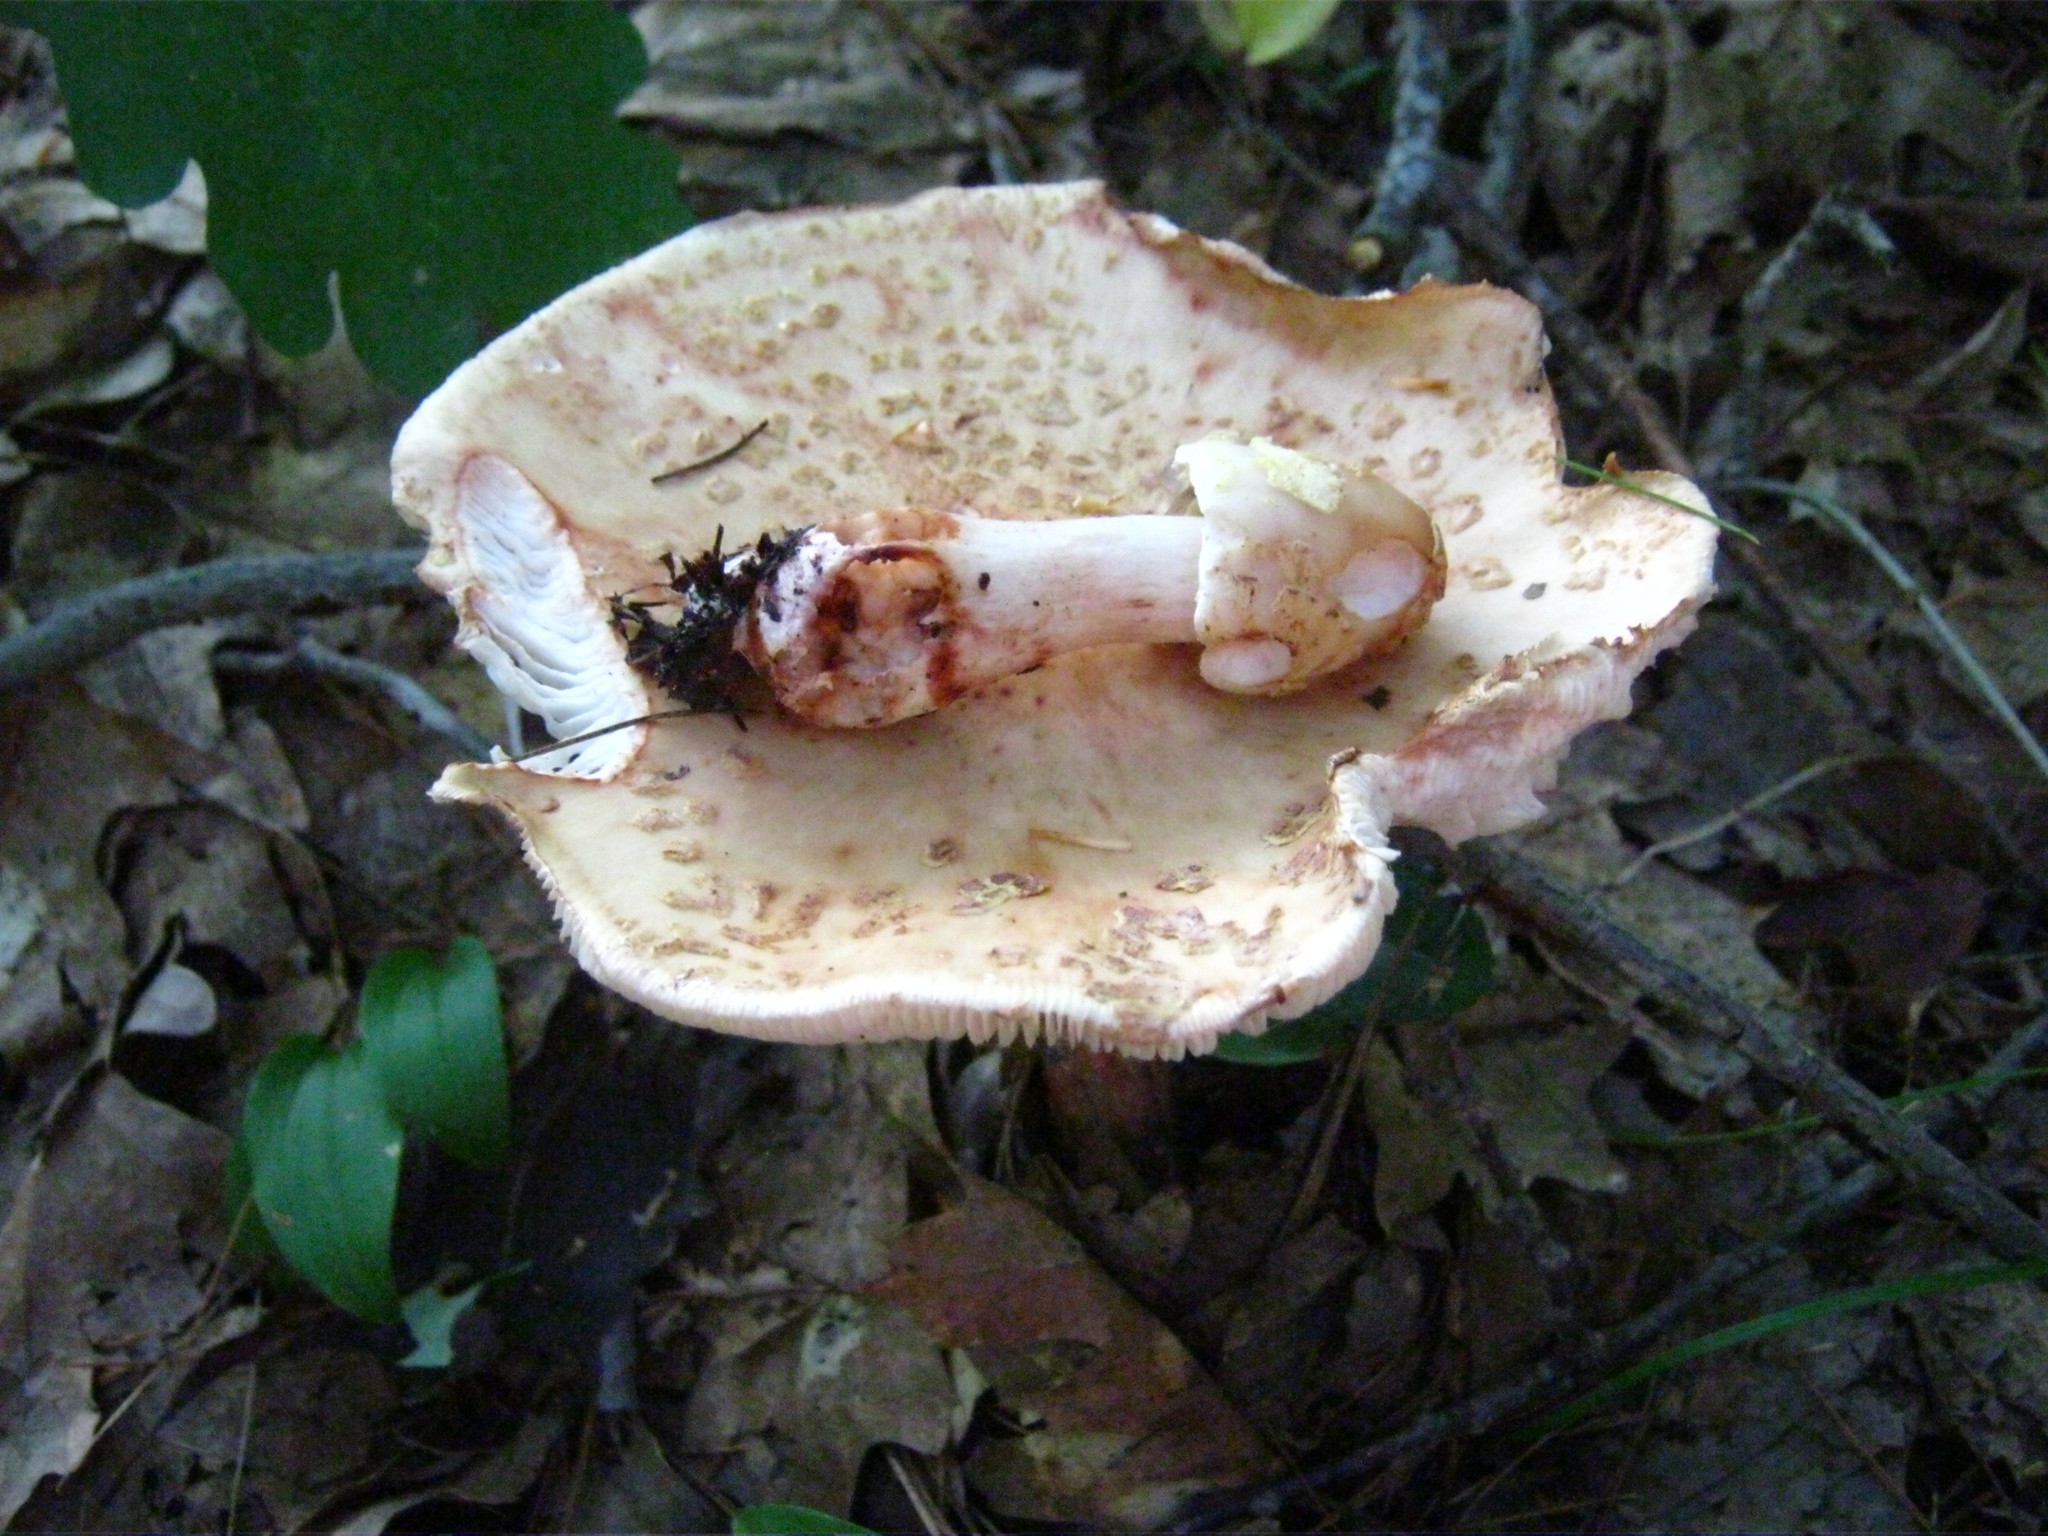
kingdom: Fungi
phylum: Basidiomycota
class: Agaricomycetes
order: Agaricales
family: Amanitaceae
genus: Amanita
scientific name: Amanita
